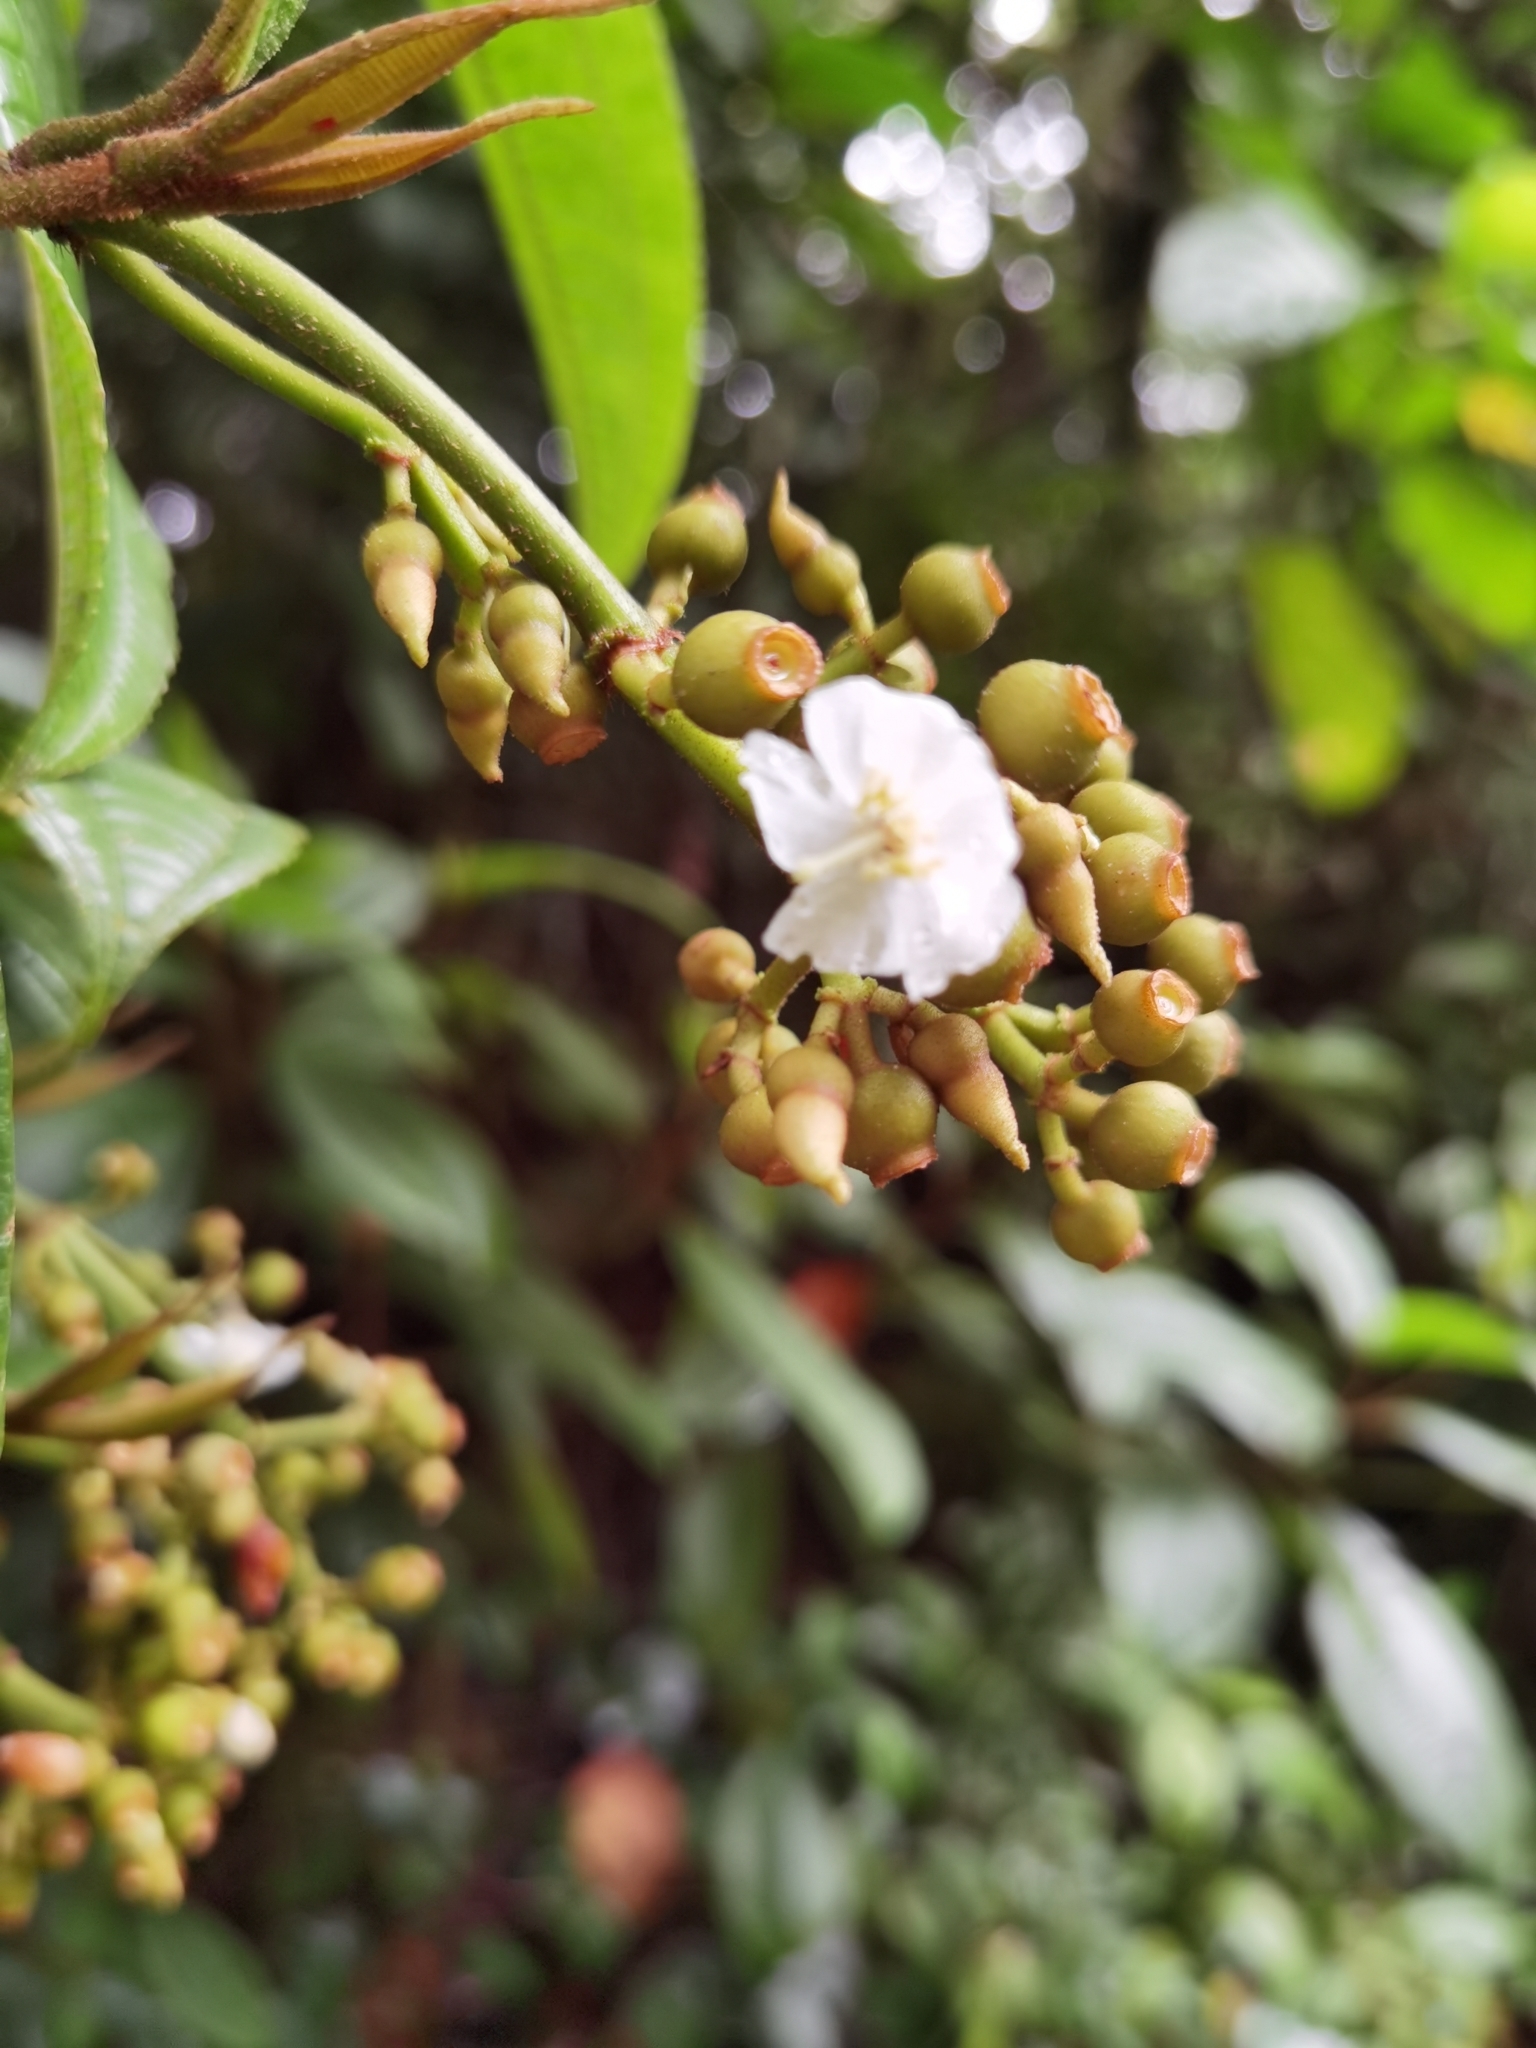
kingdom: Plantae
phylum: Tracheophyta
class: Magnoliopsida
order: Myrtales
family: Melastomataceae
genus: Miconia
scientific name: Miconia lasiopoda
